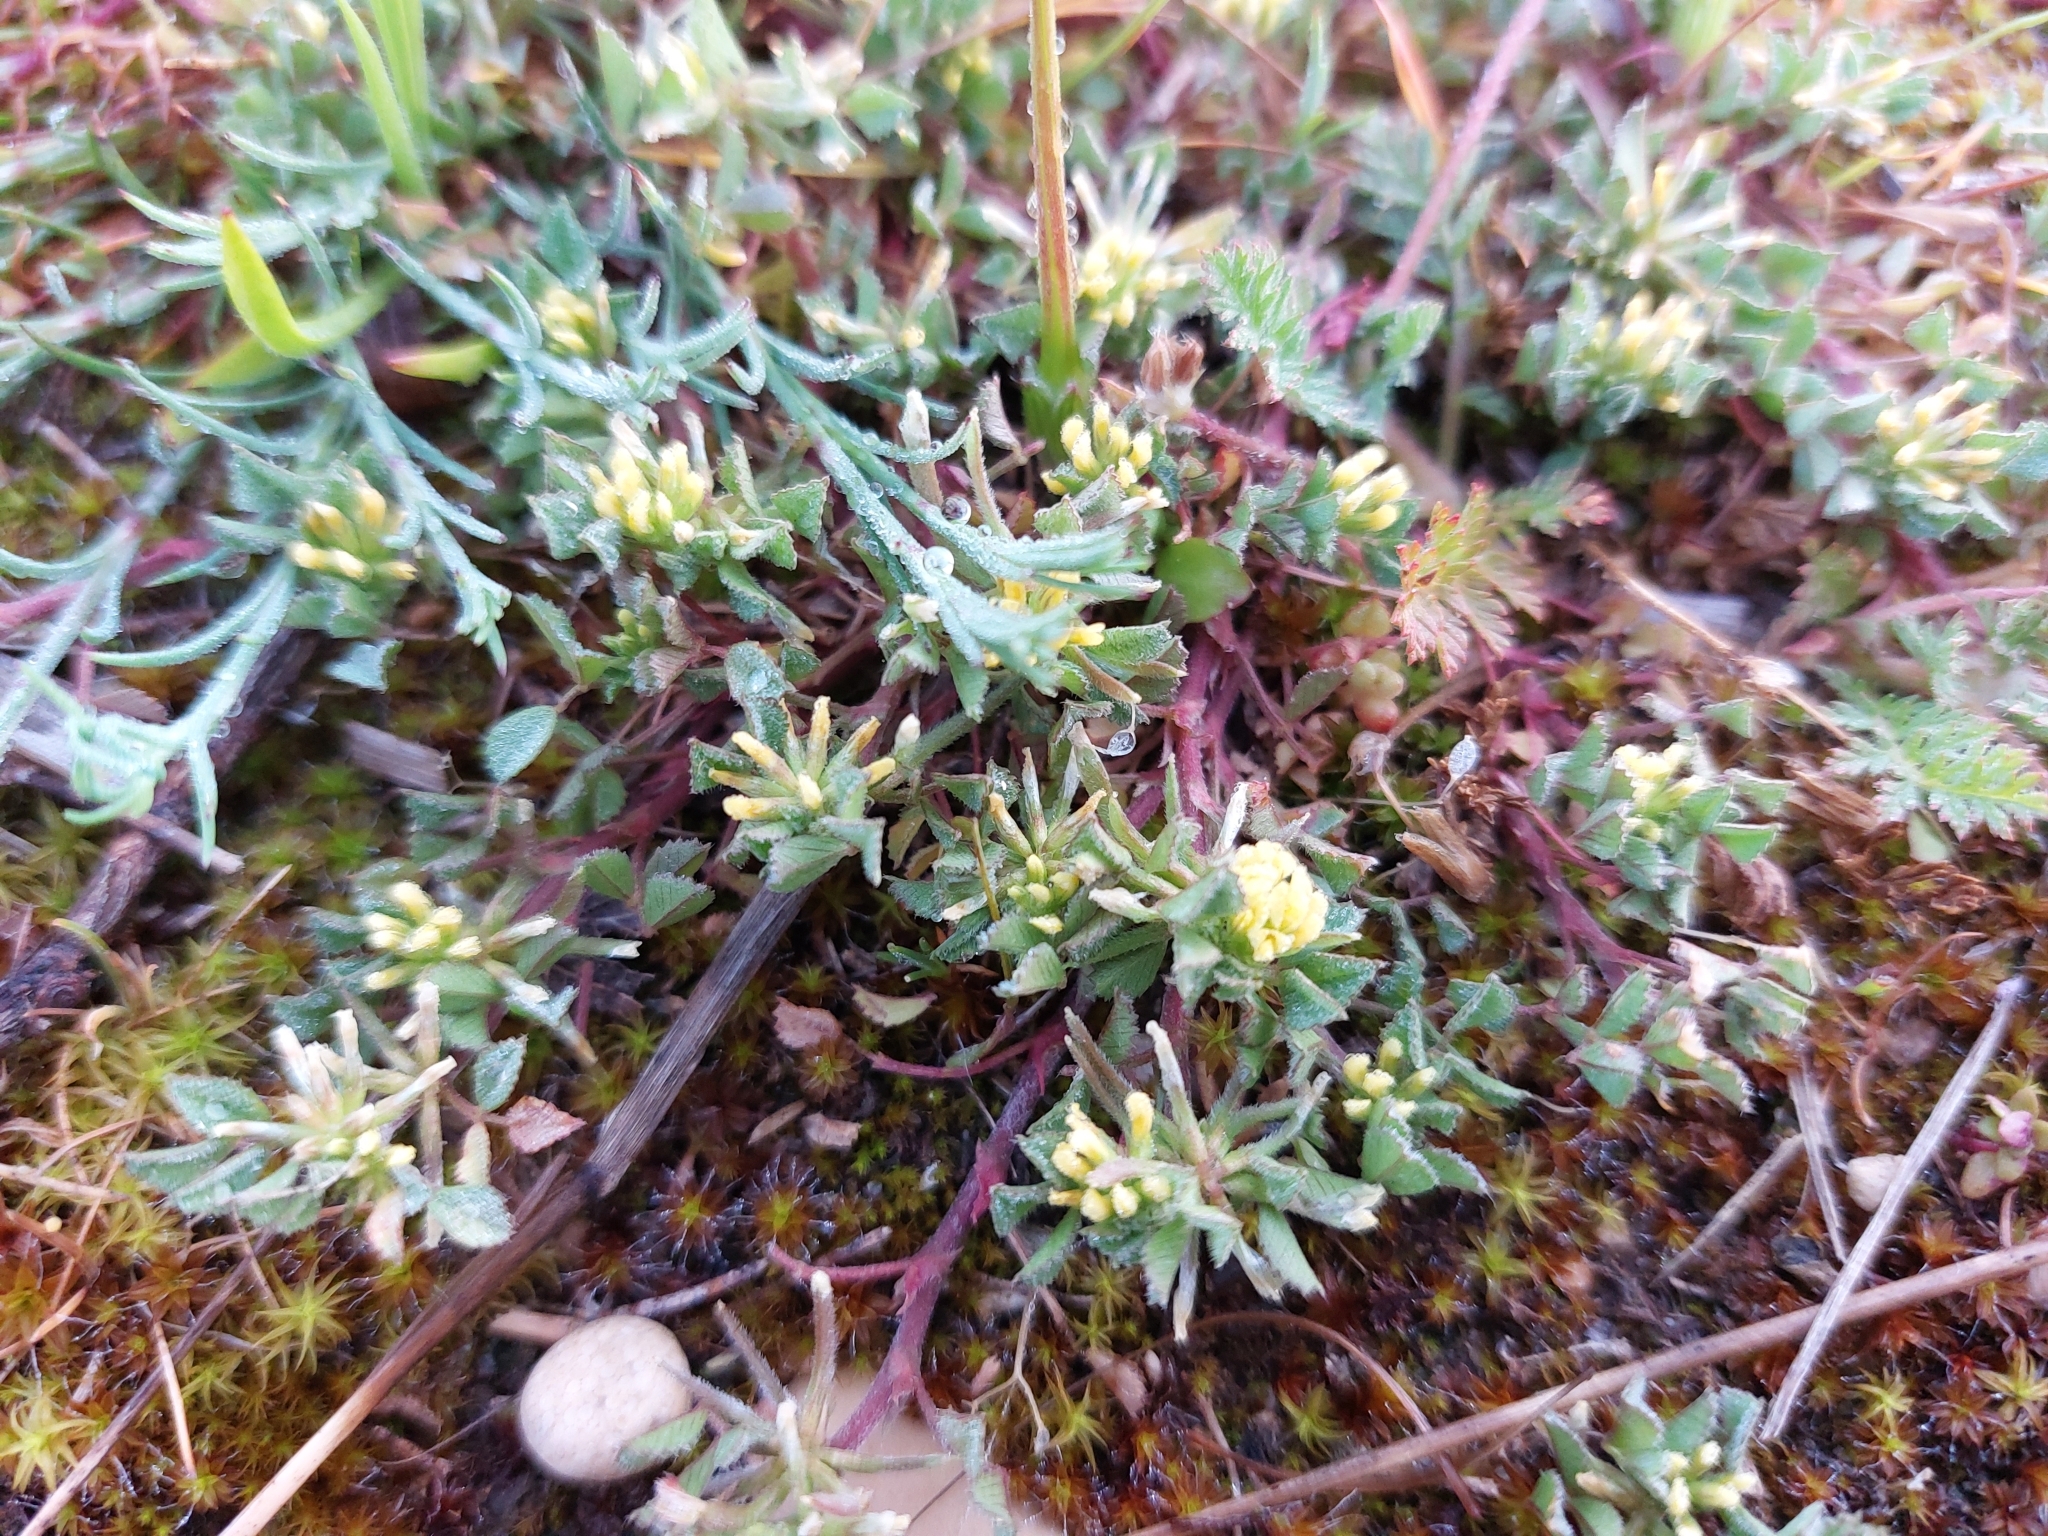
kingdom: Plantae
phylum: Tracheophyta
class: Magnoliopsida
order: Fabales
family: Fabaceae
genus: Trifolium
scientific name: Trifolium dubium
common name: Suckling clover
